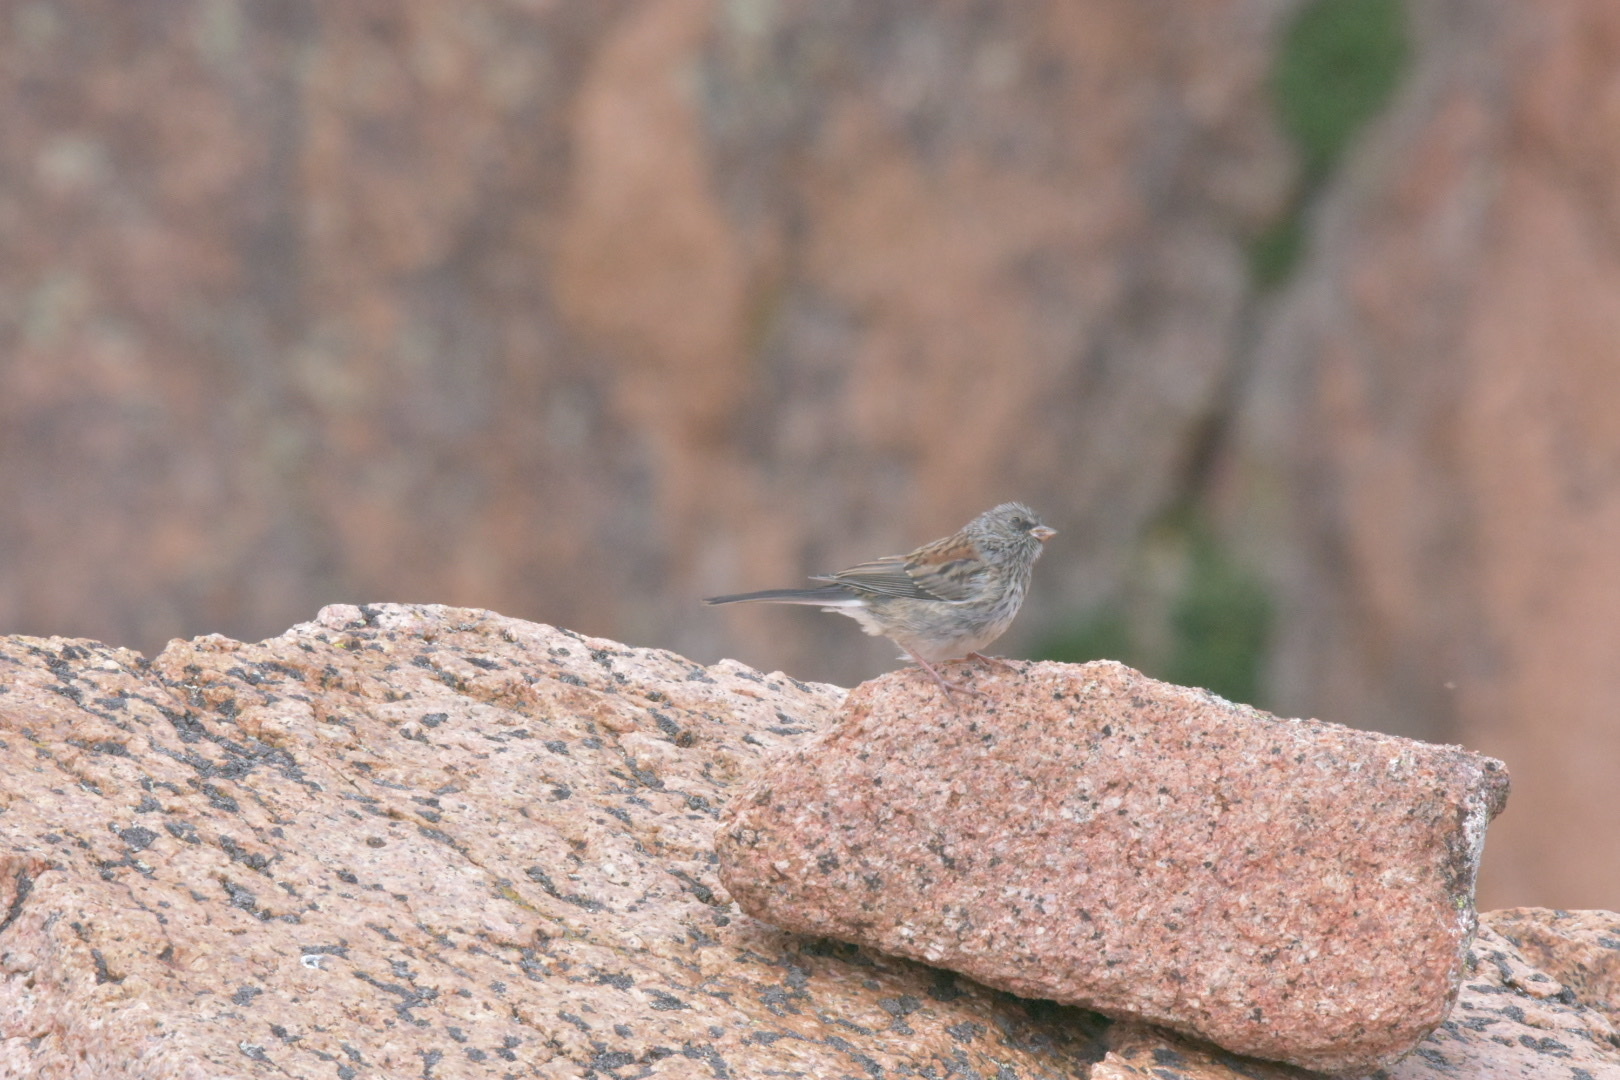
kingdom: Animalia
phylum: Chordata
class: Aves
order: Passeriformes
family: Passerellidae
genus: Junco
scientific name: Junco hyemalis
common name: Dark-eyed junco
